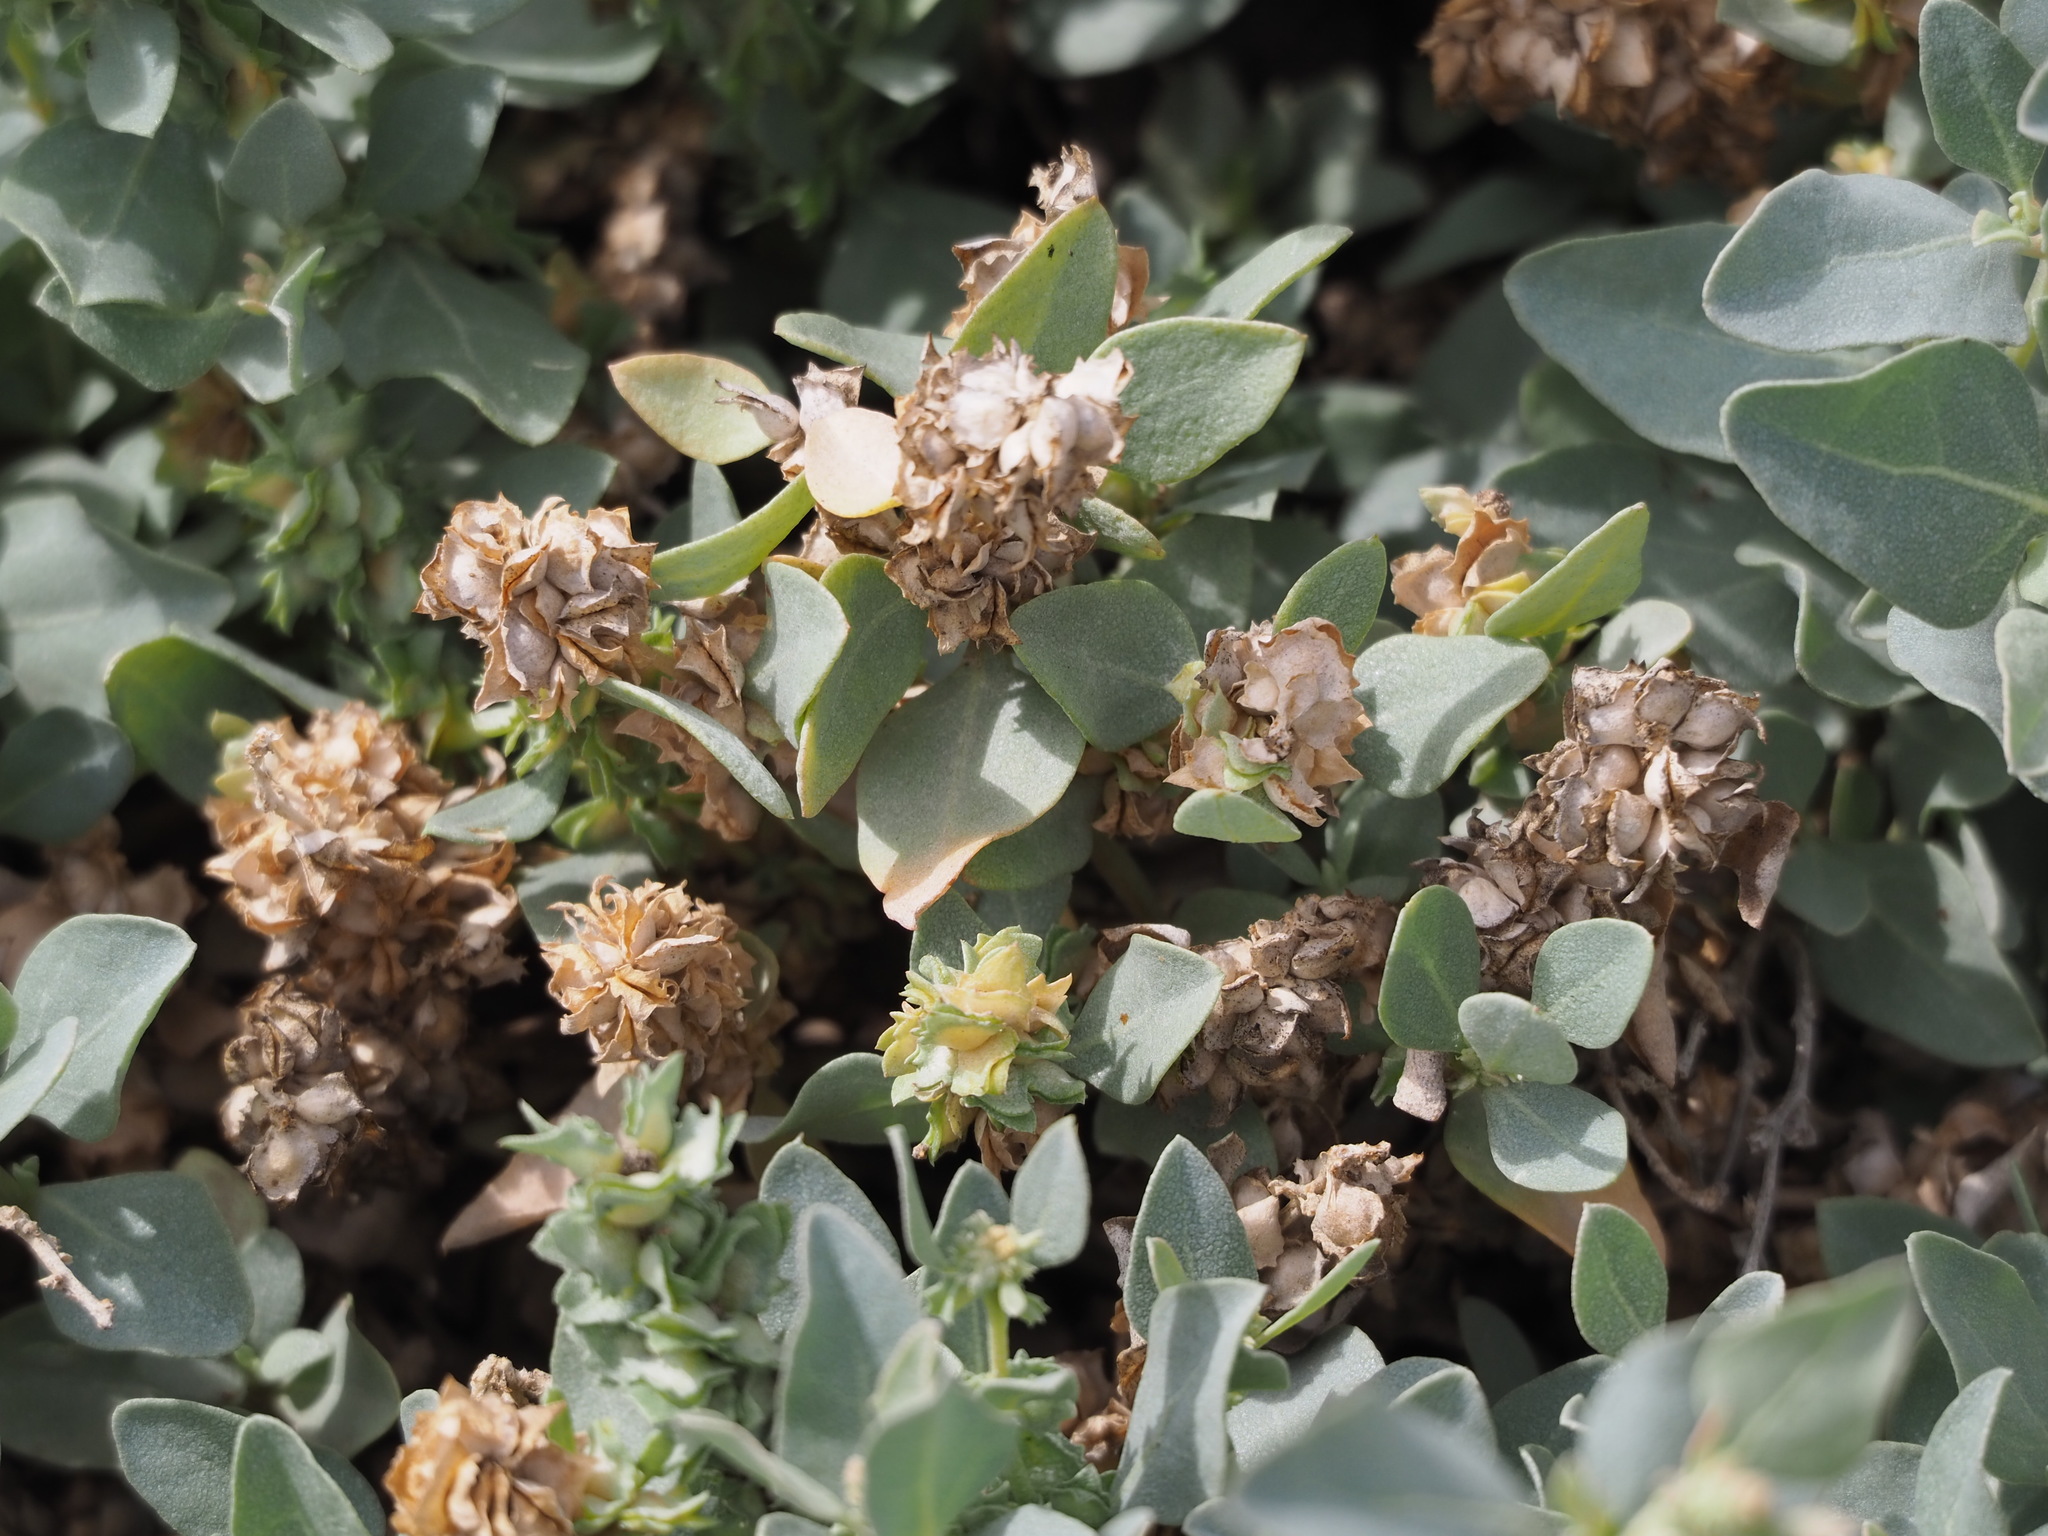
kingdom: Plantae
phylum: Tracheophyta
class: Magnoliopsida
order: Caryophyllales
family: Amaranthaceae
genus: Atriplex
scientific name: Atriplex maximowicziana
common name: Maximowicz's saltbush
